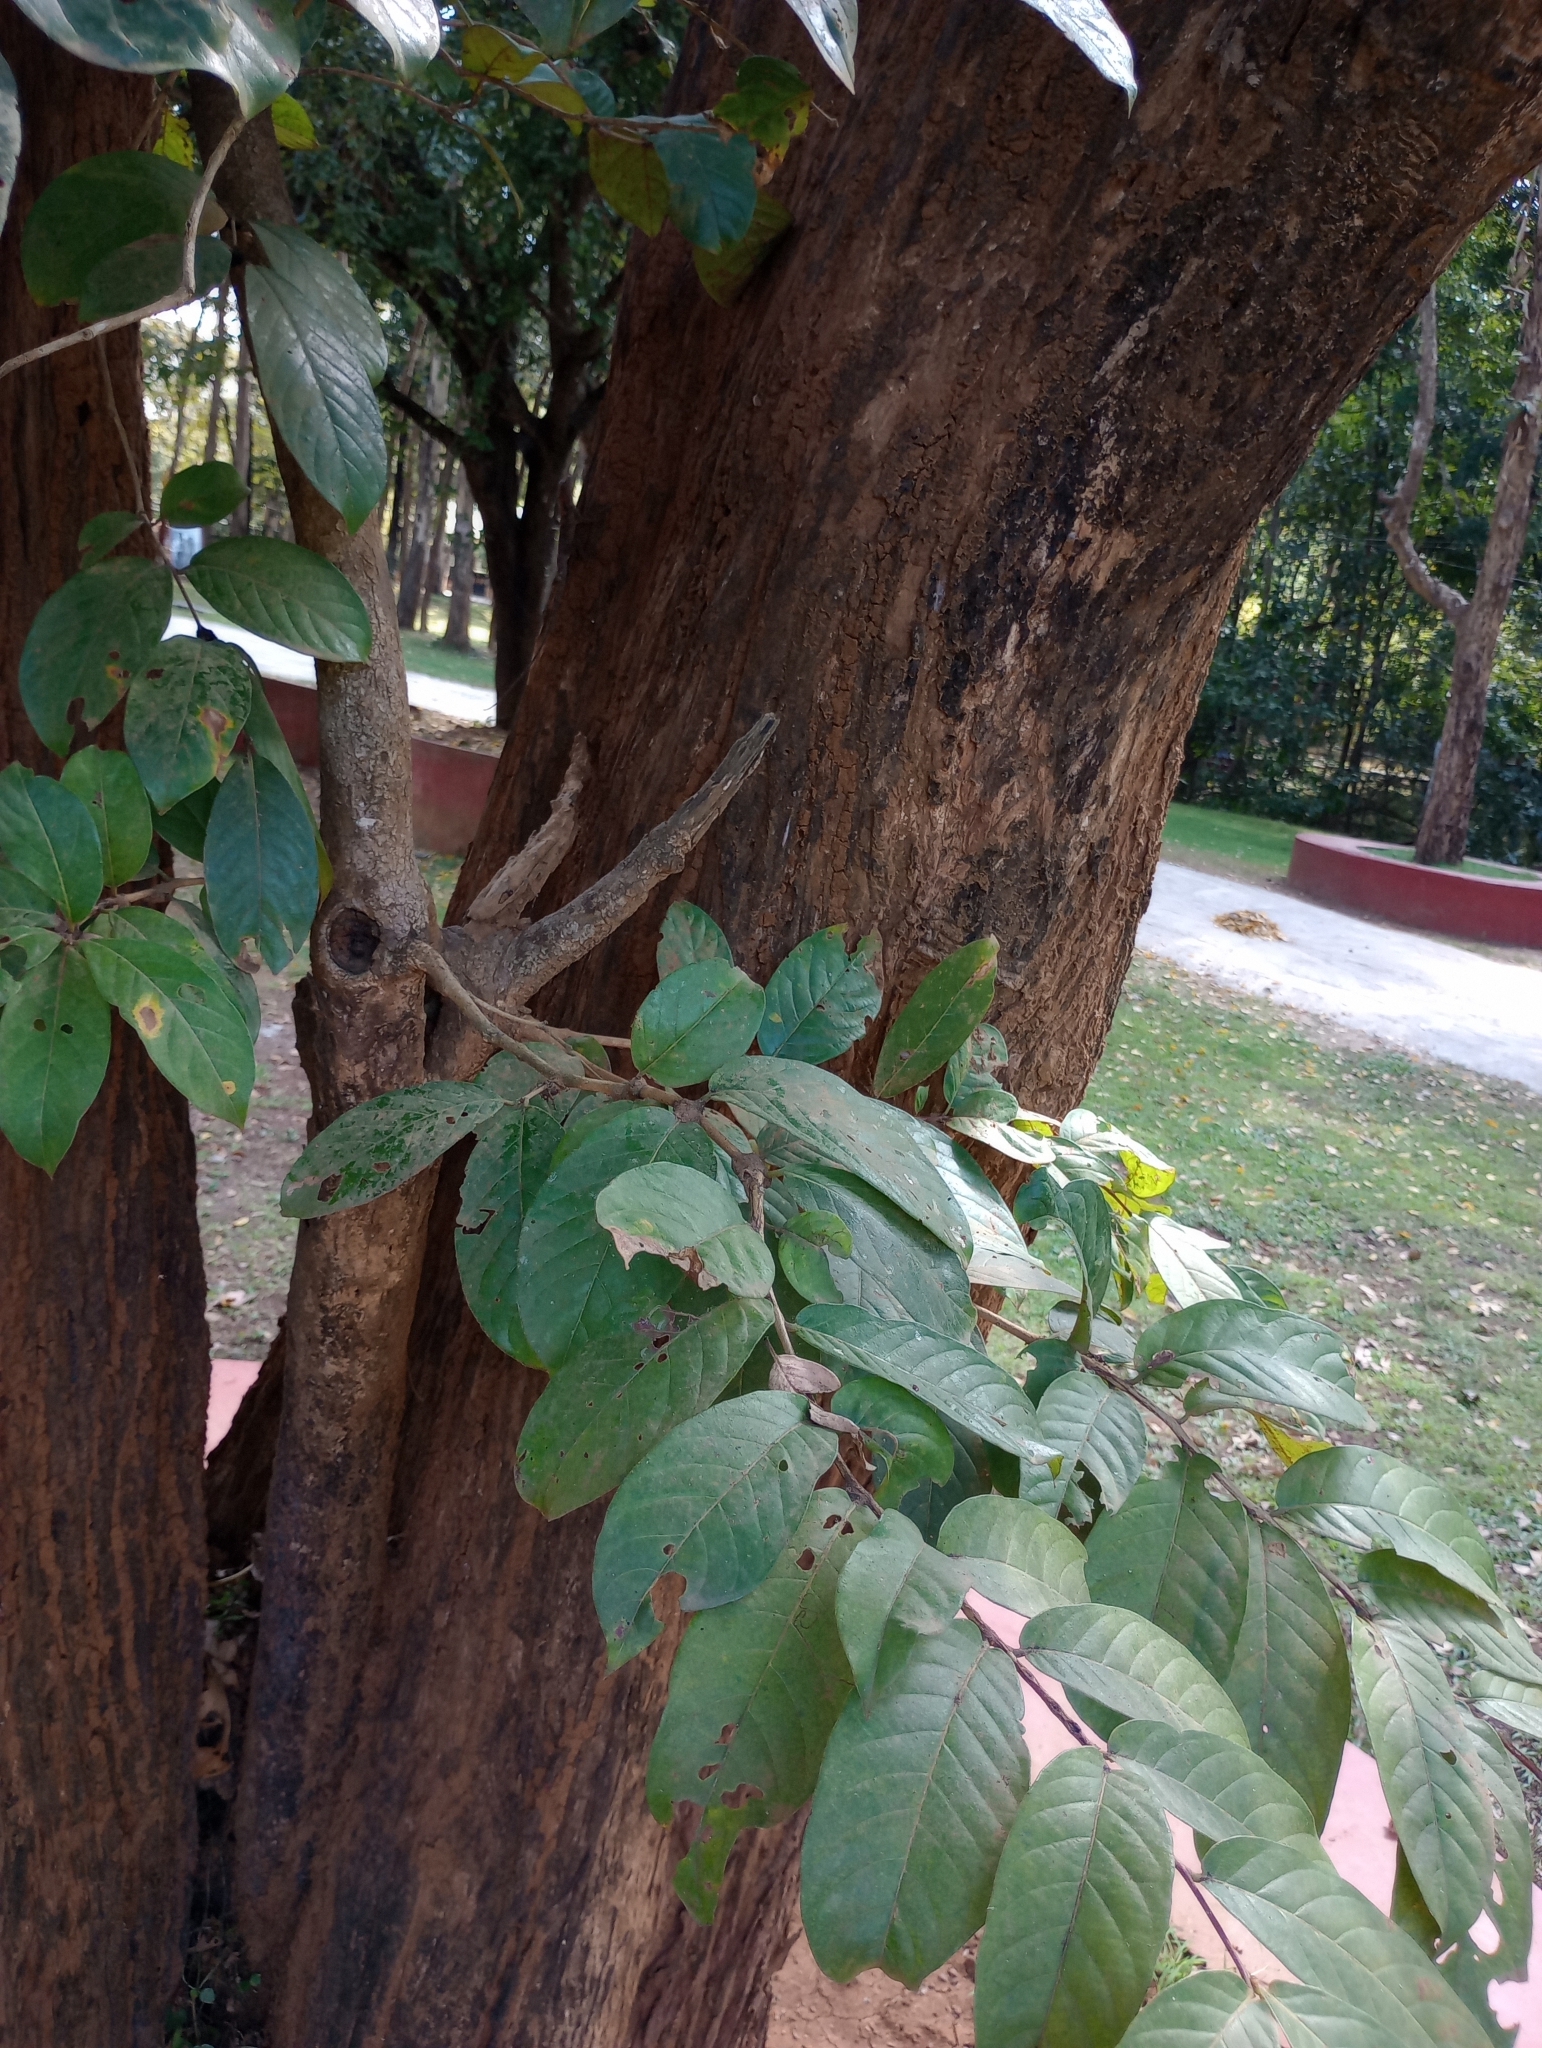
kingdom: Plantae
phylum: Tracheophyta
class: Magnoliopsida
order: Myrtales
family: Combretaceae
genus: Terminalia
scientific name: Terminalia paniculata
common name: Flowering murdah
